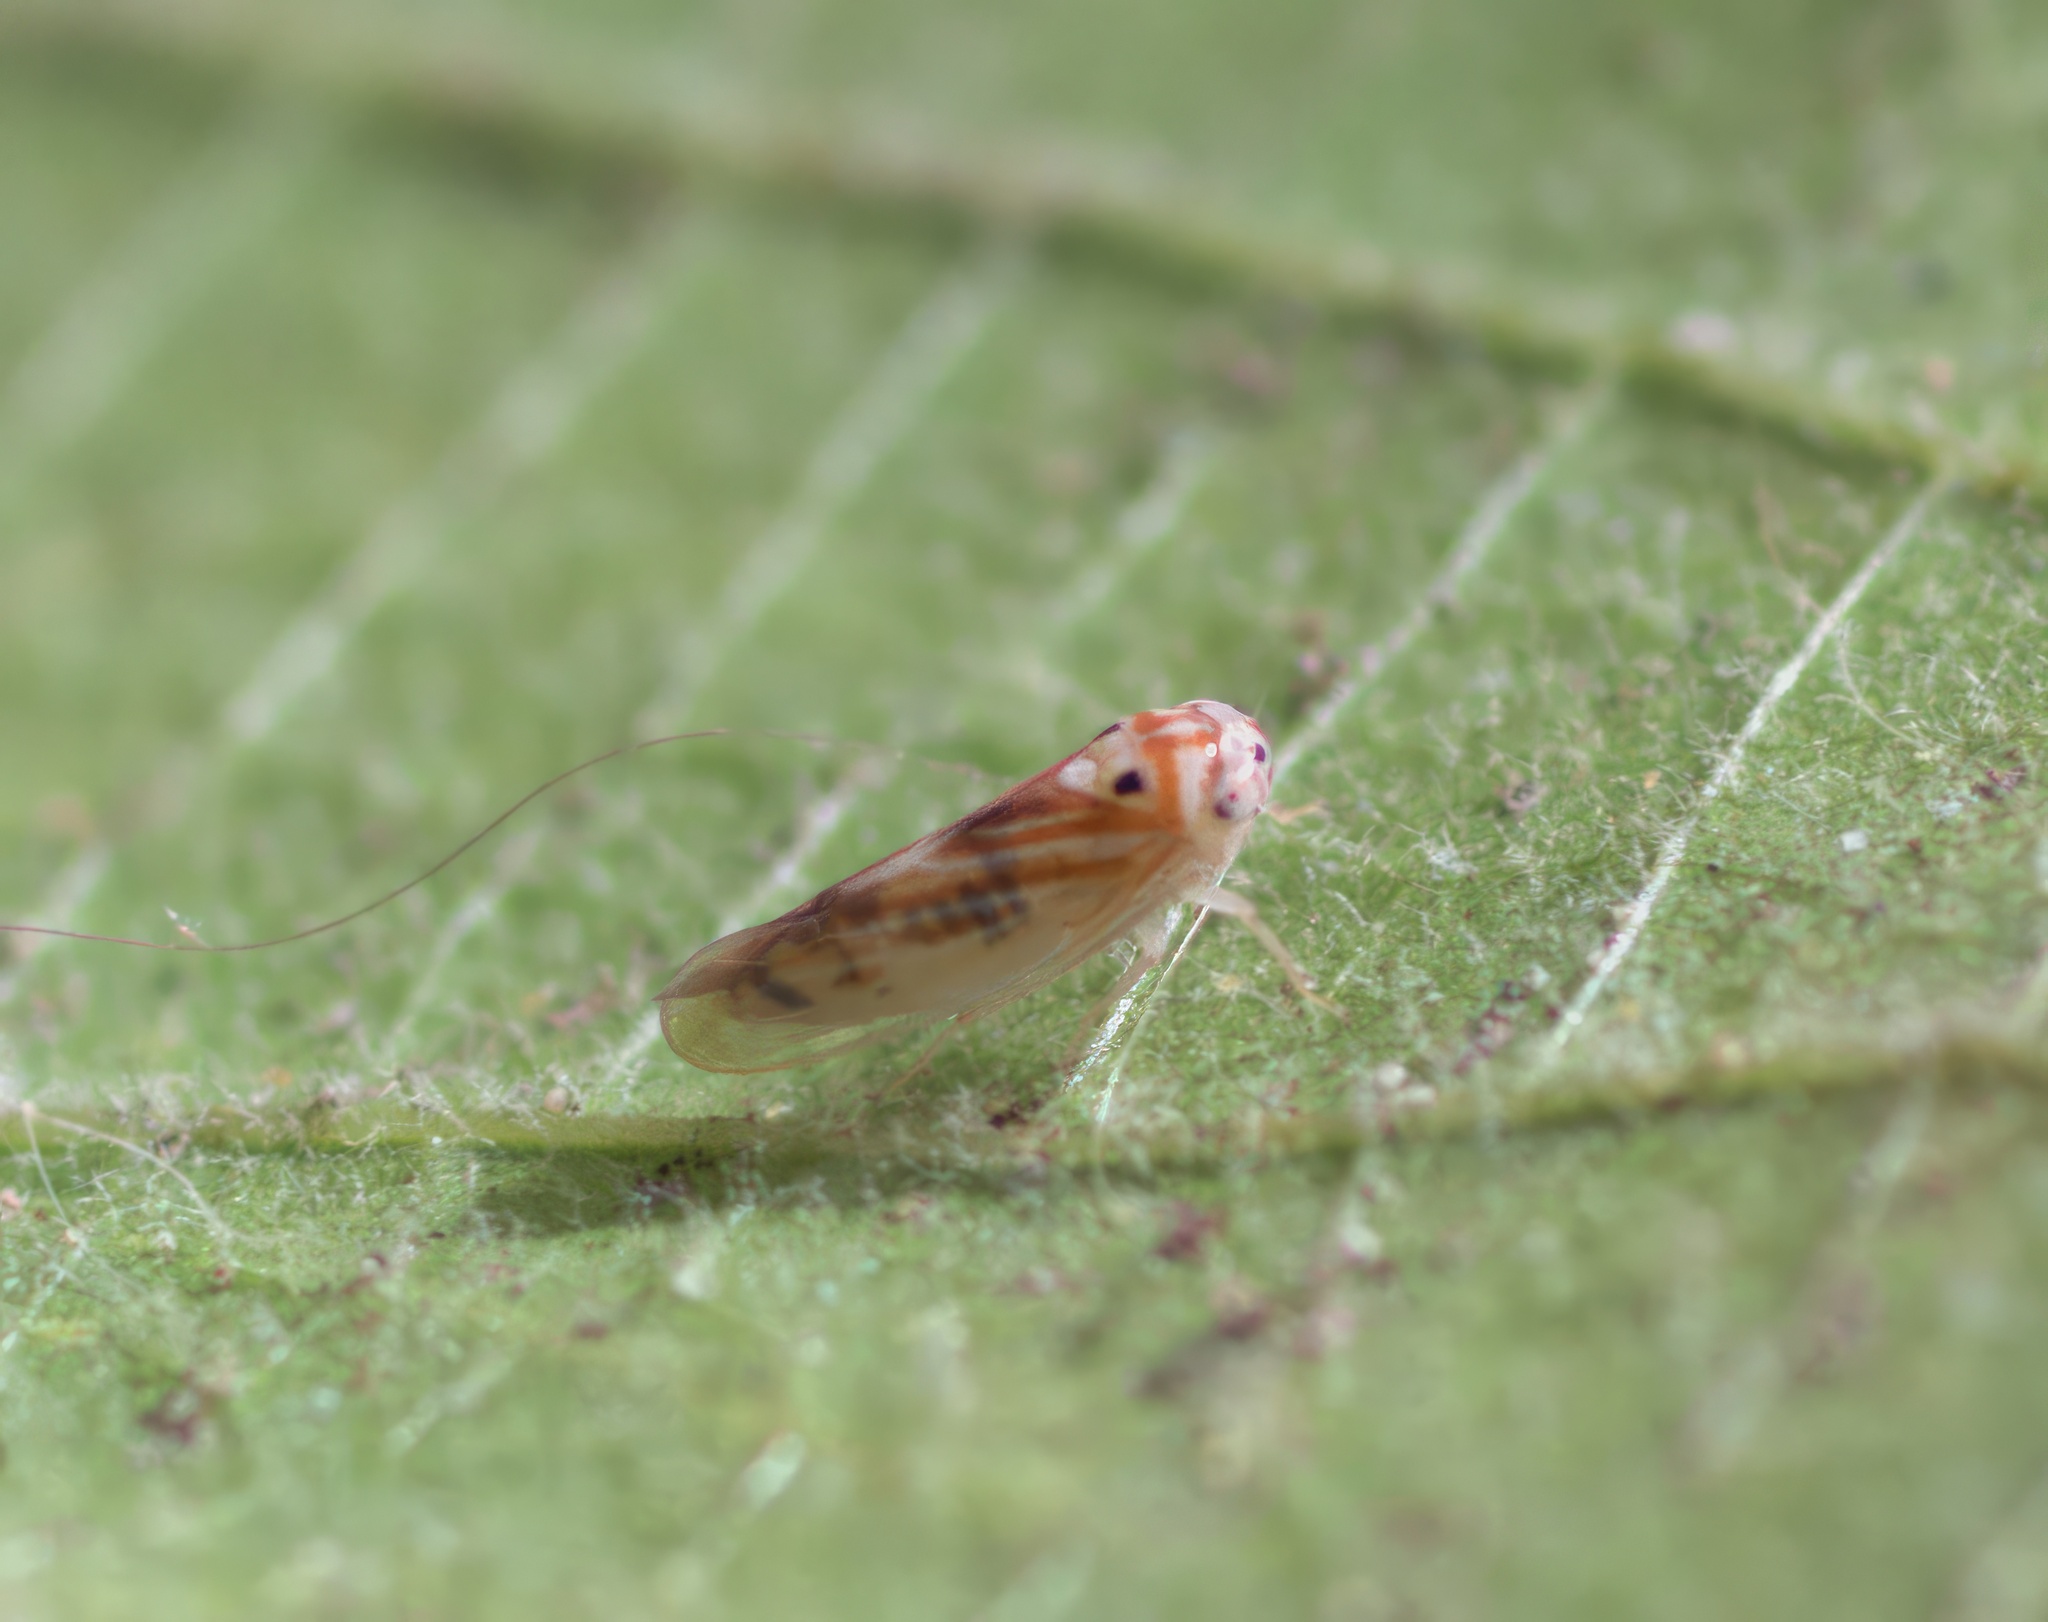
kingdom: Animalia
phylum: Arthropoda
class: Insecta
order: Hemiptera
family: Cicadellidae
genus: Caladonus
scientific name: Caladonus coquilletti
